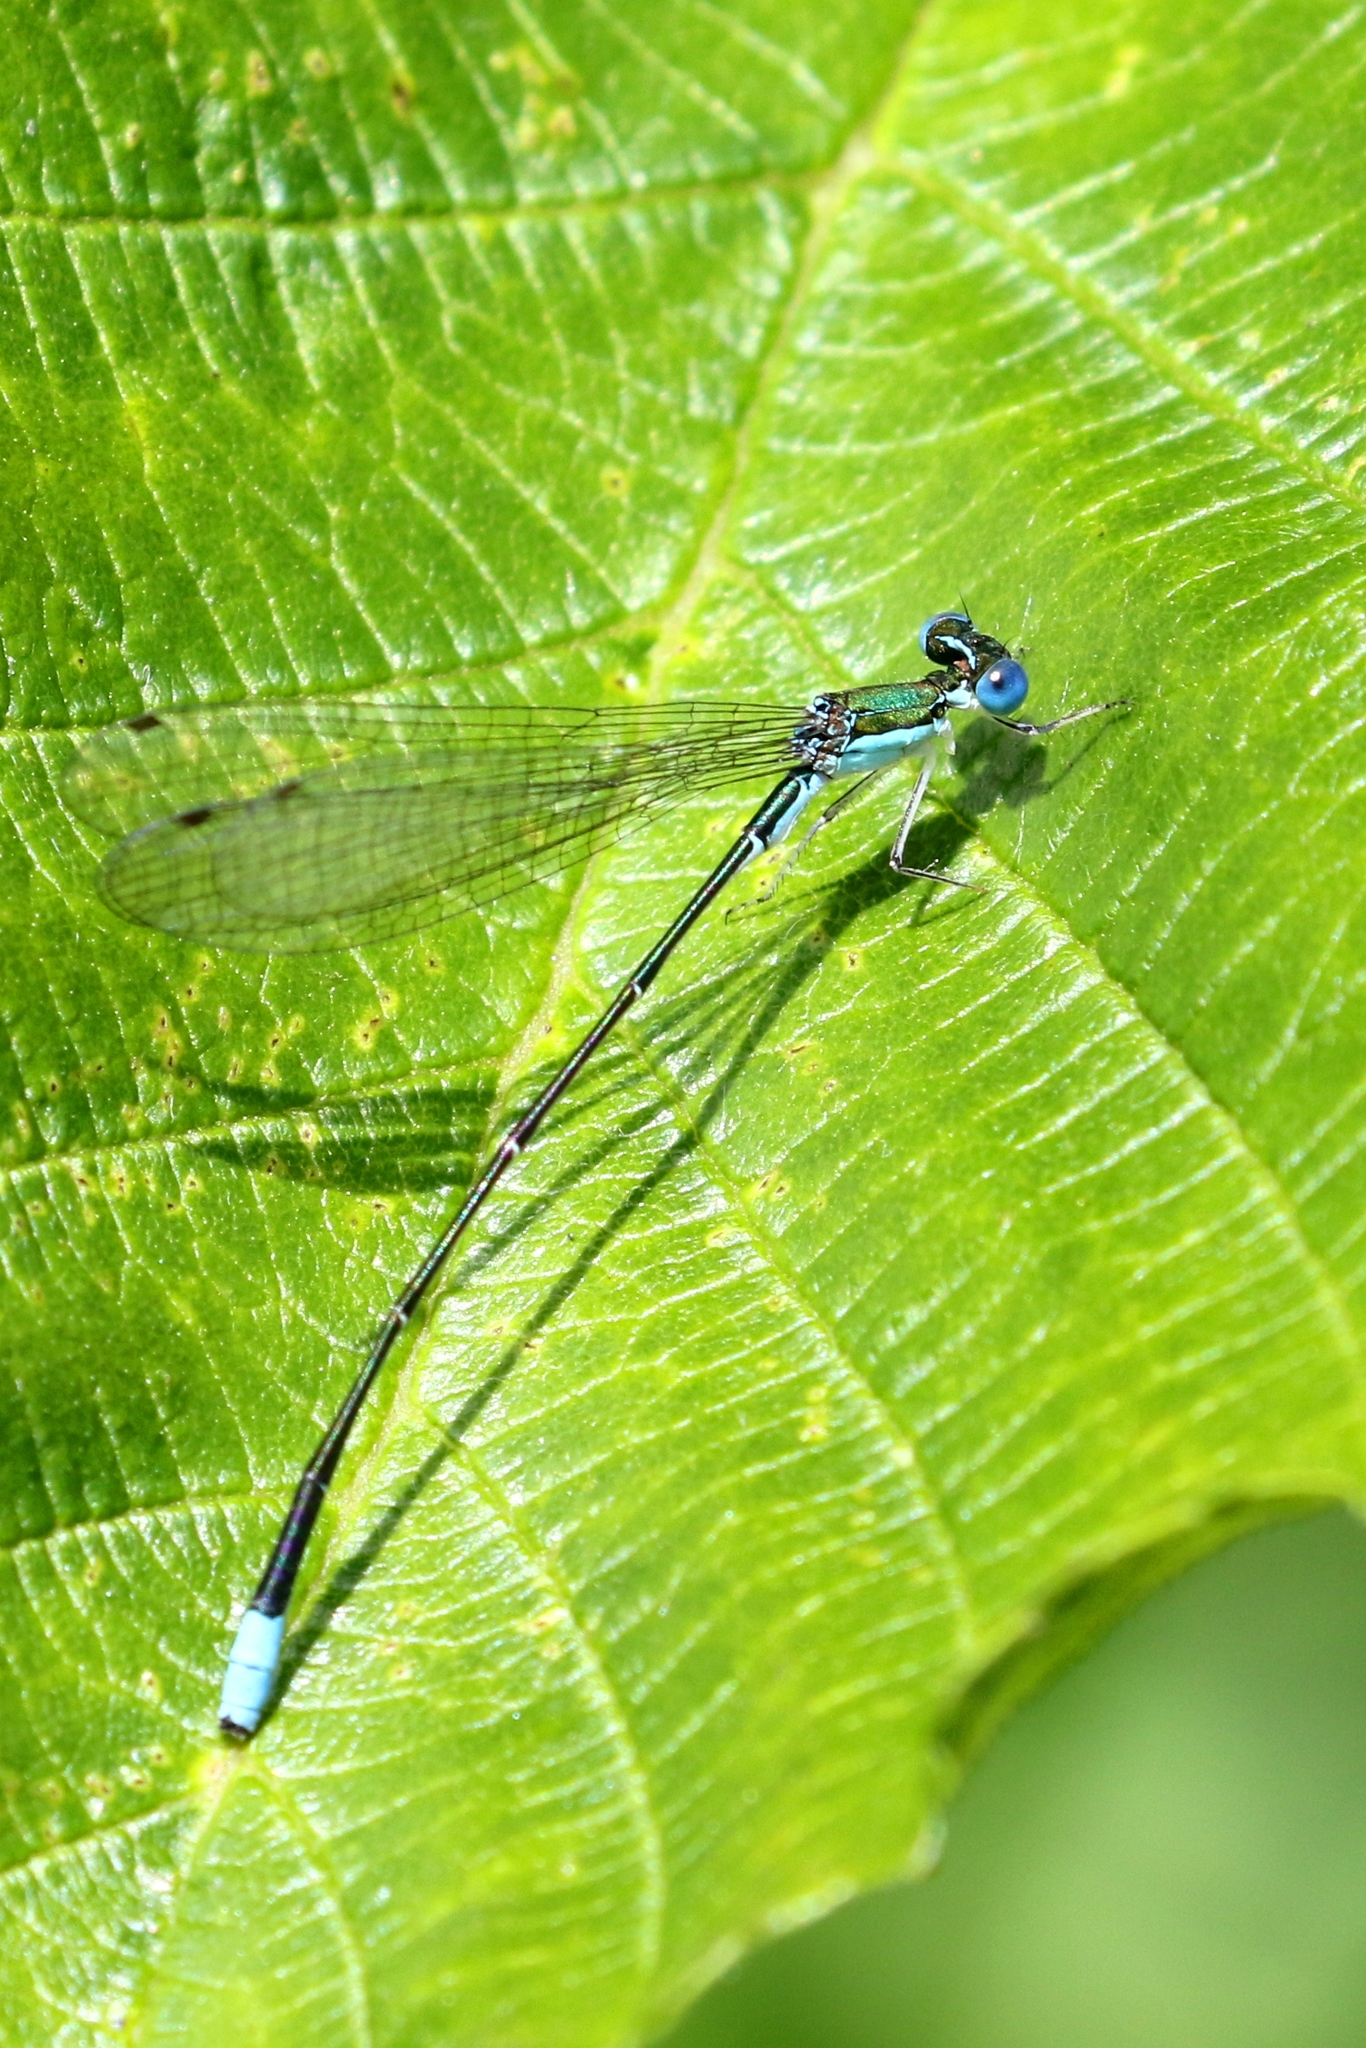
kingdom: Animalia
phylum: Arthropoda
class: Insecta
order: Odonata
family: Coenagrionidae
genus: Nehalennia
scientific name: Nehalennia gracilis
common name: Sphagnum sprite
